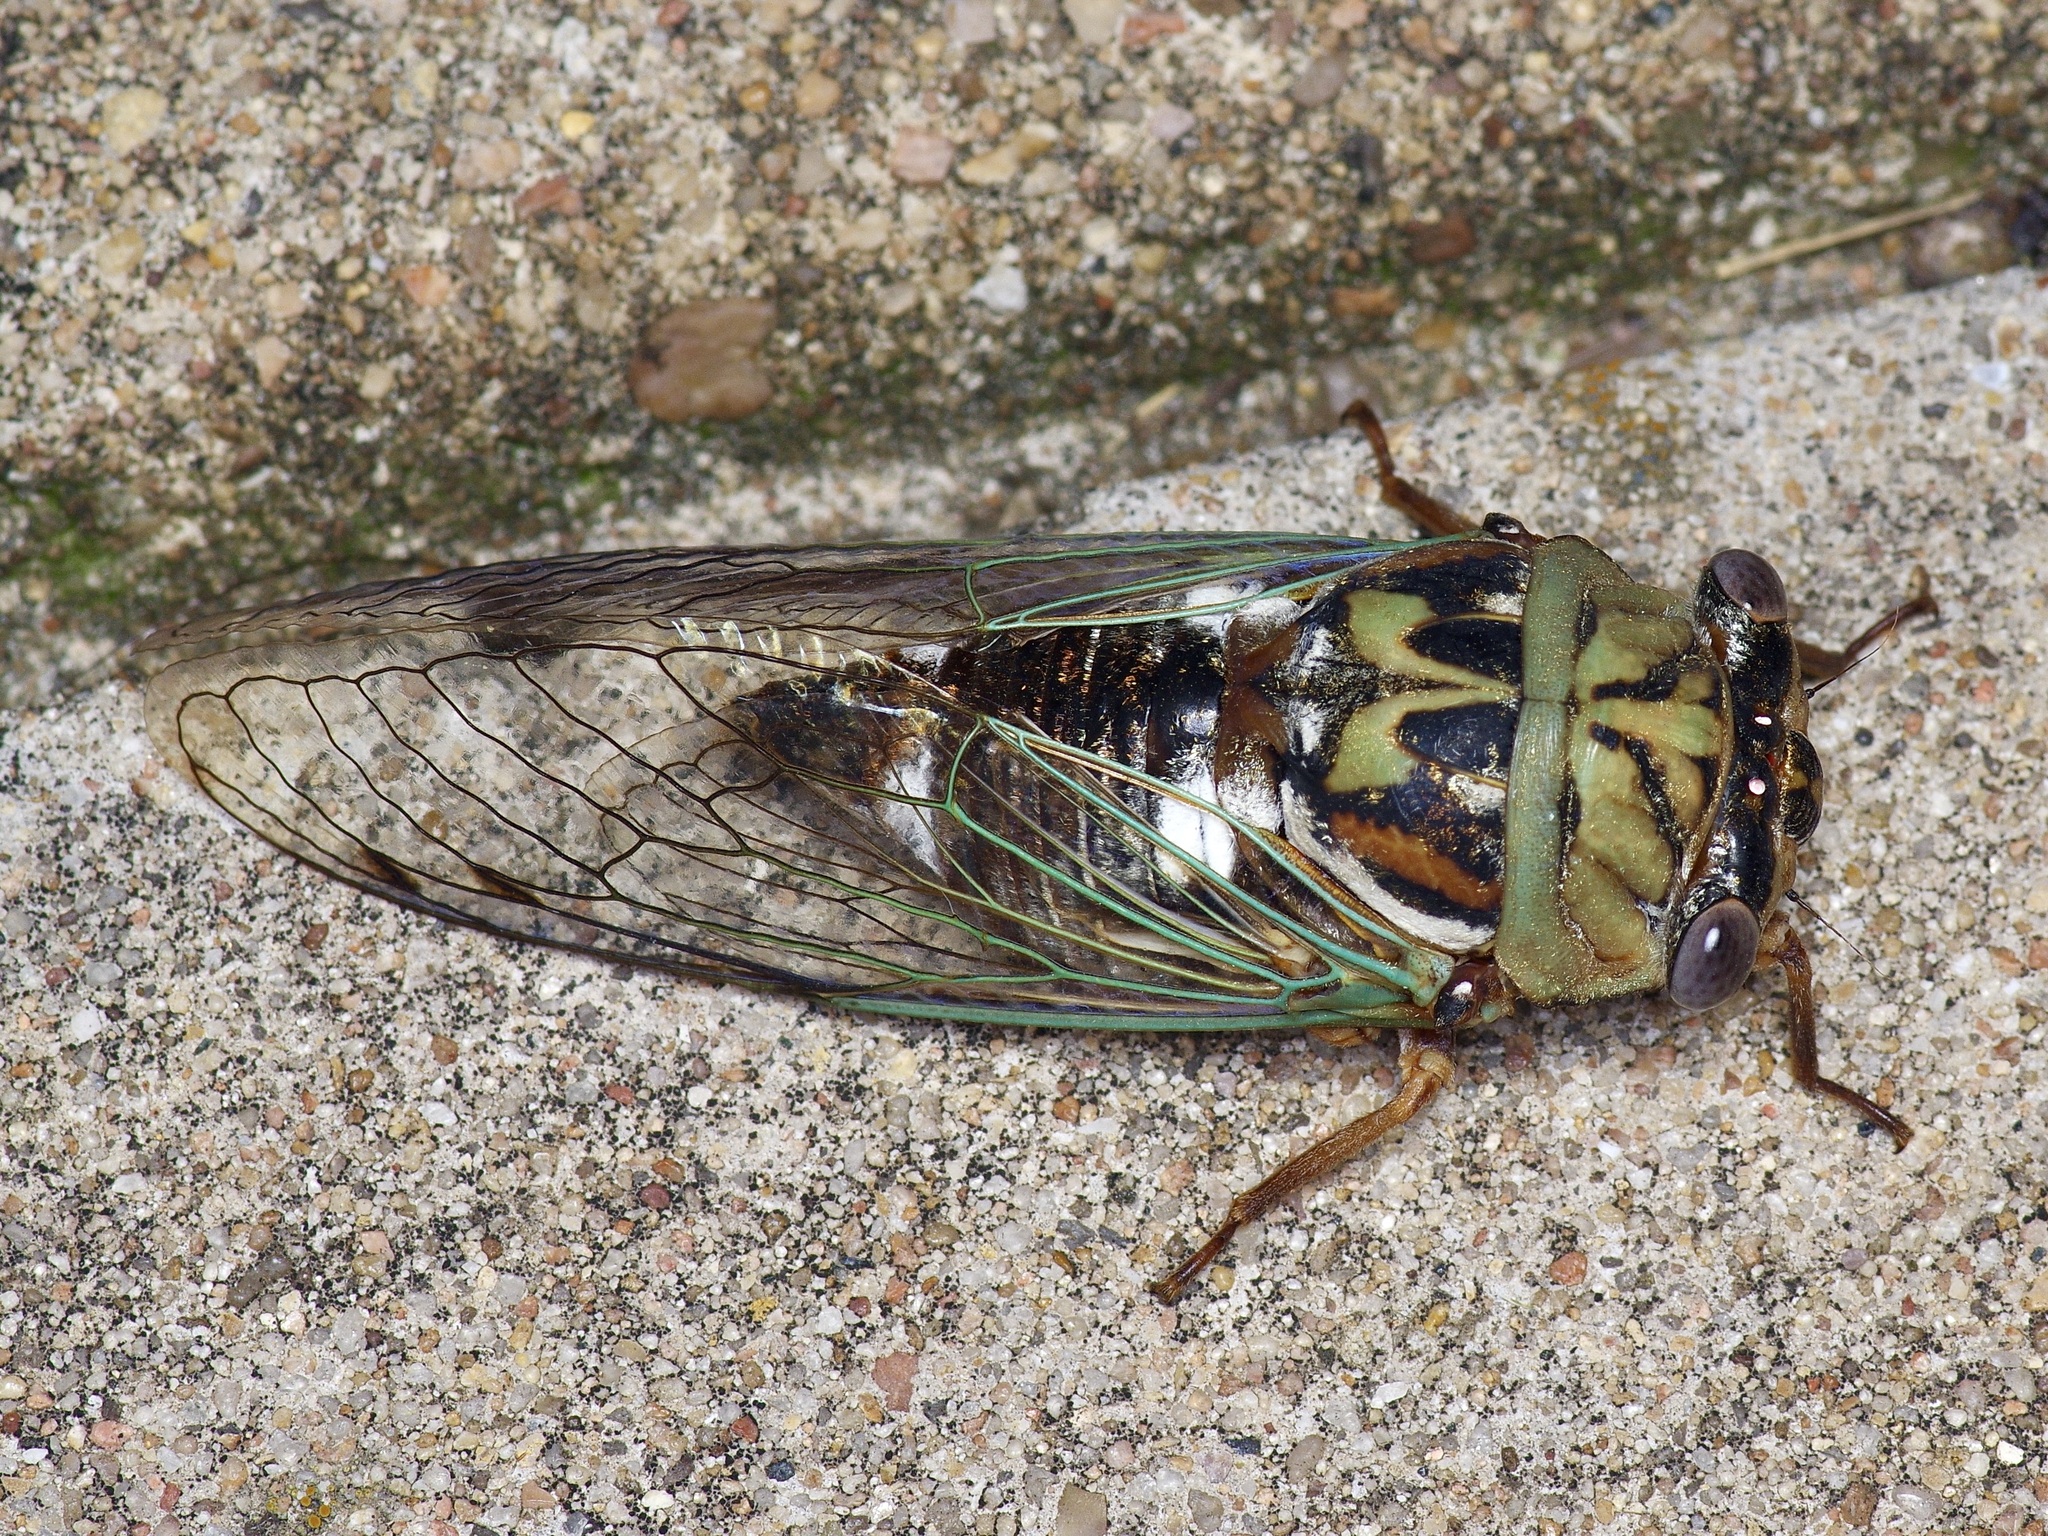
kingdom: Animalia
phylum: Arthropoda
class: Insecta
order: Hemiptera
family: Cicadidae
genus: Megatibicen
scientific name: Megatibicen resh
